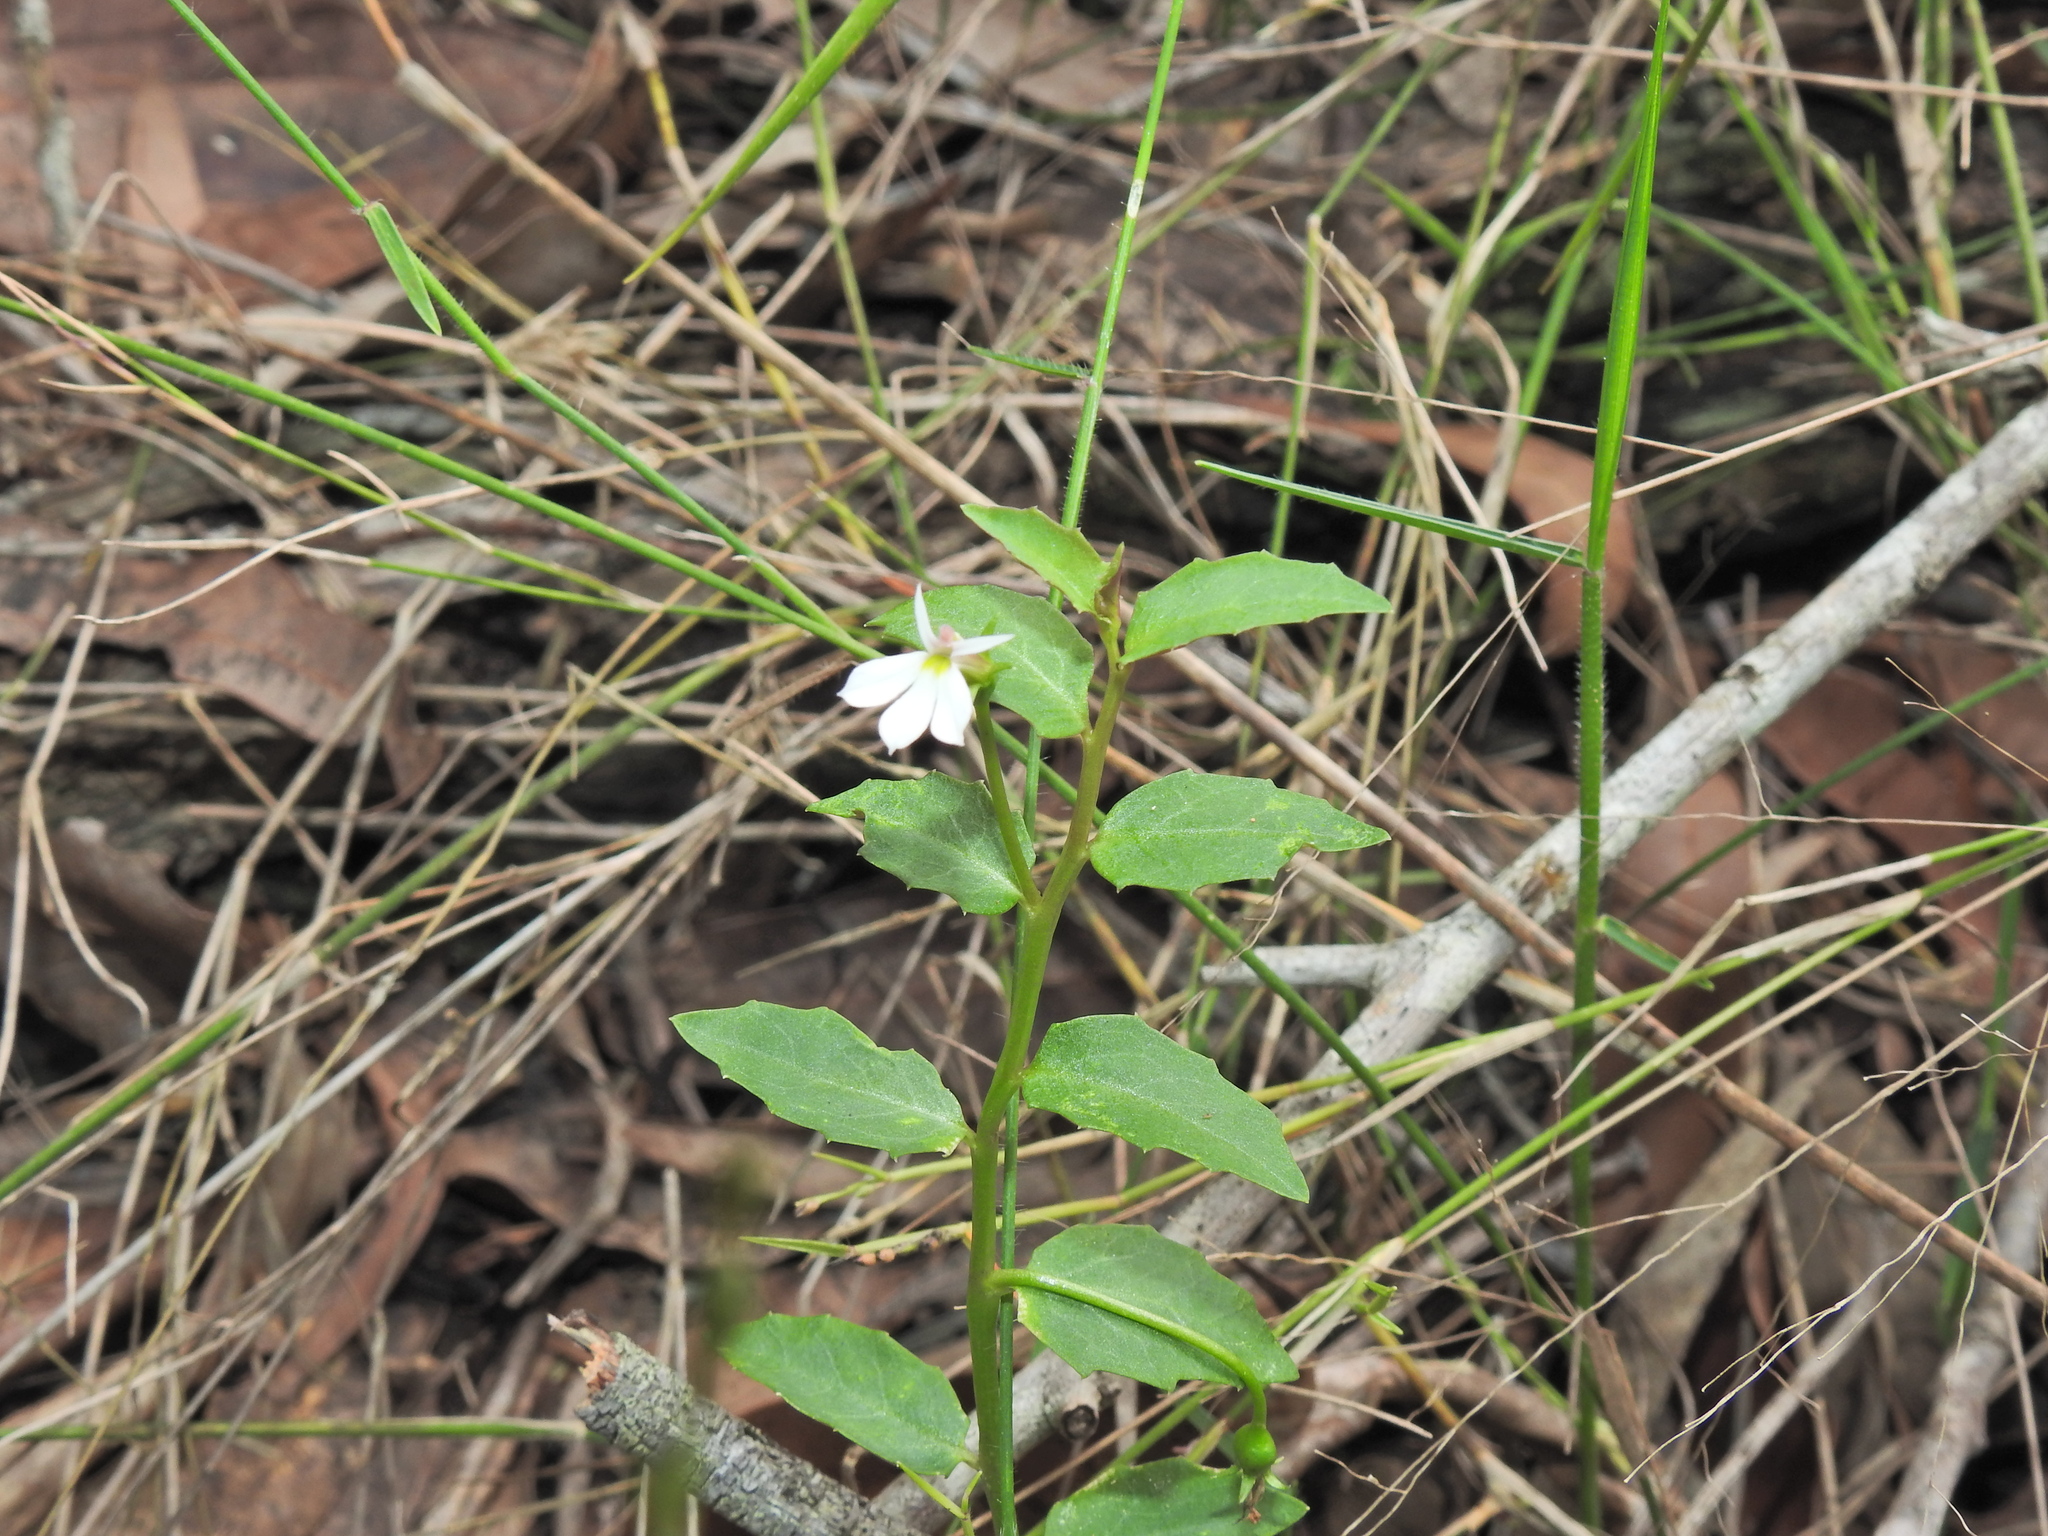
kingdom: Plantae
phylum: Tracheophyta
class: Magnoliopsida
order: Asterales
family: Campanulaceae
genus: Lobelia
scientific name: Lobelia purpurascens
